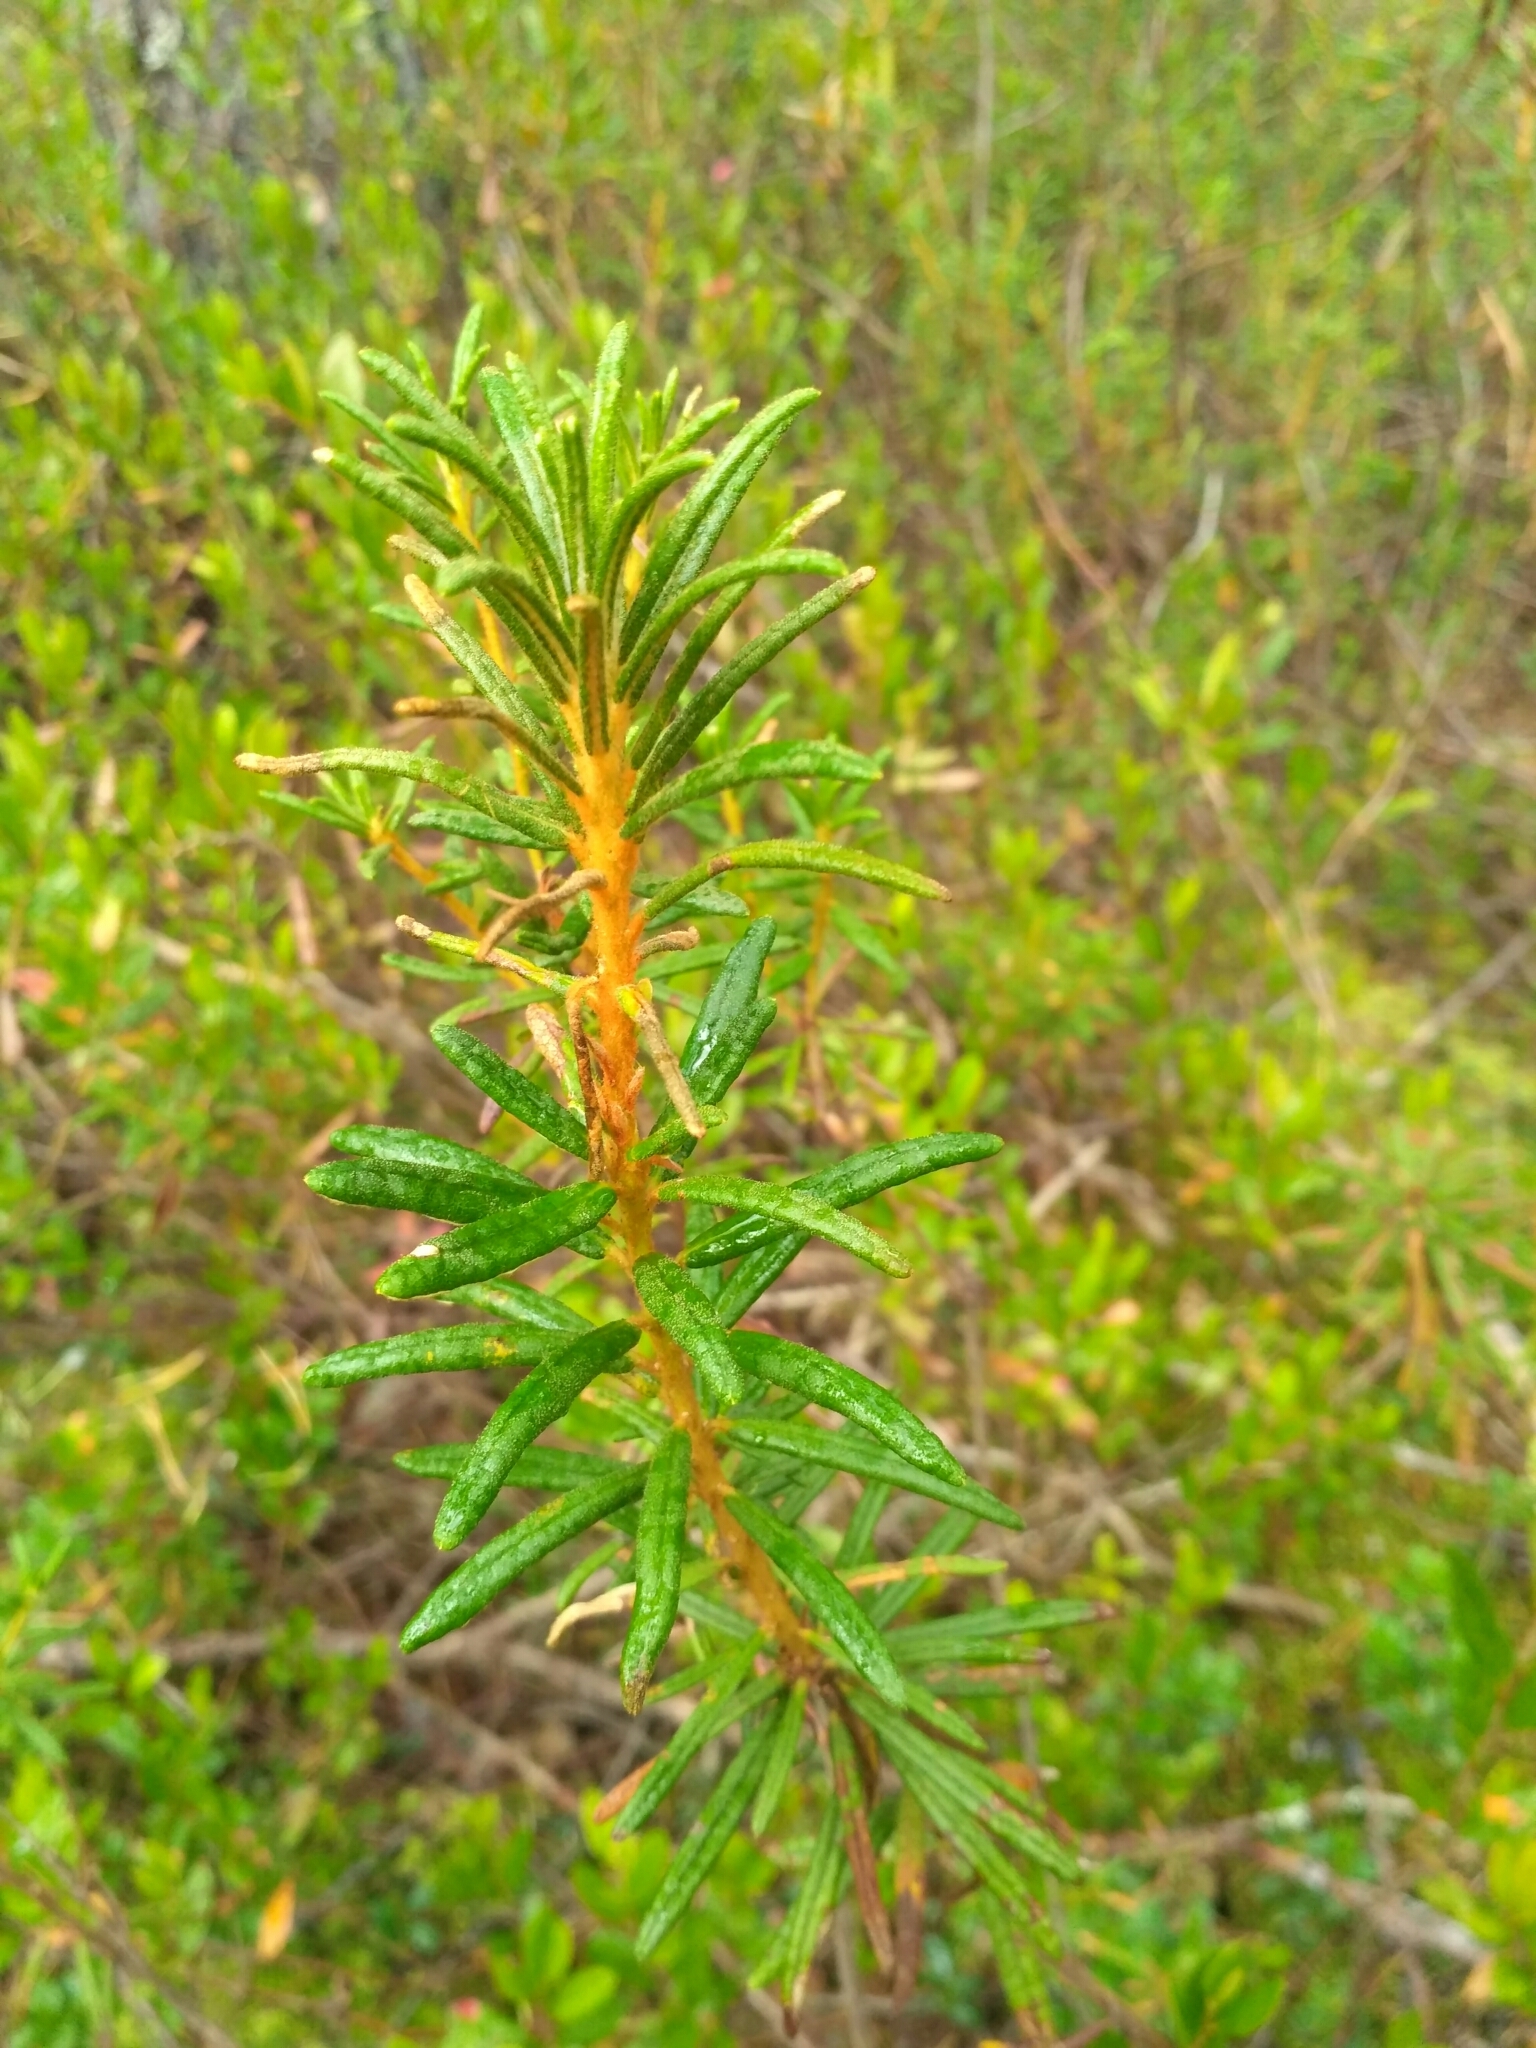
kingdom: Plantae
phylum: Tracheophyta
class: Magnoliopsida
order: Ericales
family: Ericaceae
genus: Rhododendron
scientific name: Rhododendron tomentosum
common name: Marsh labrador tea
